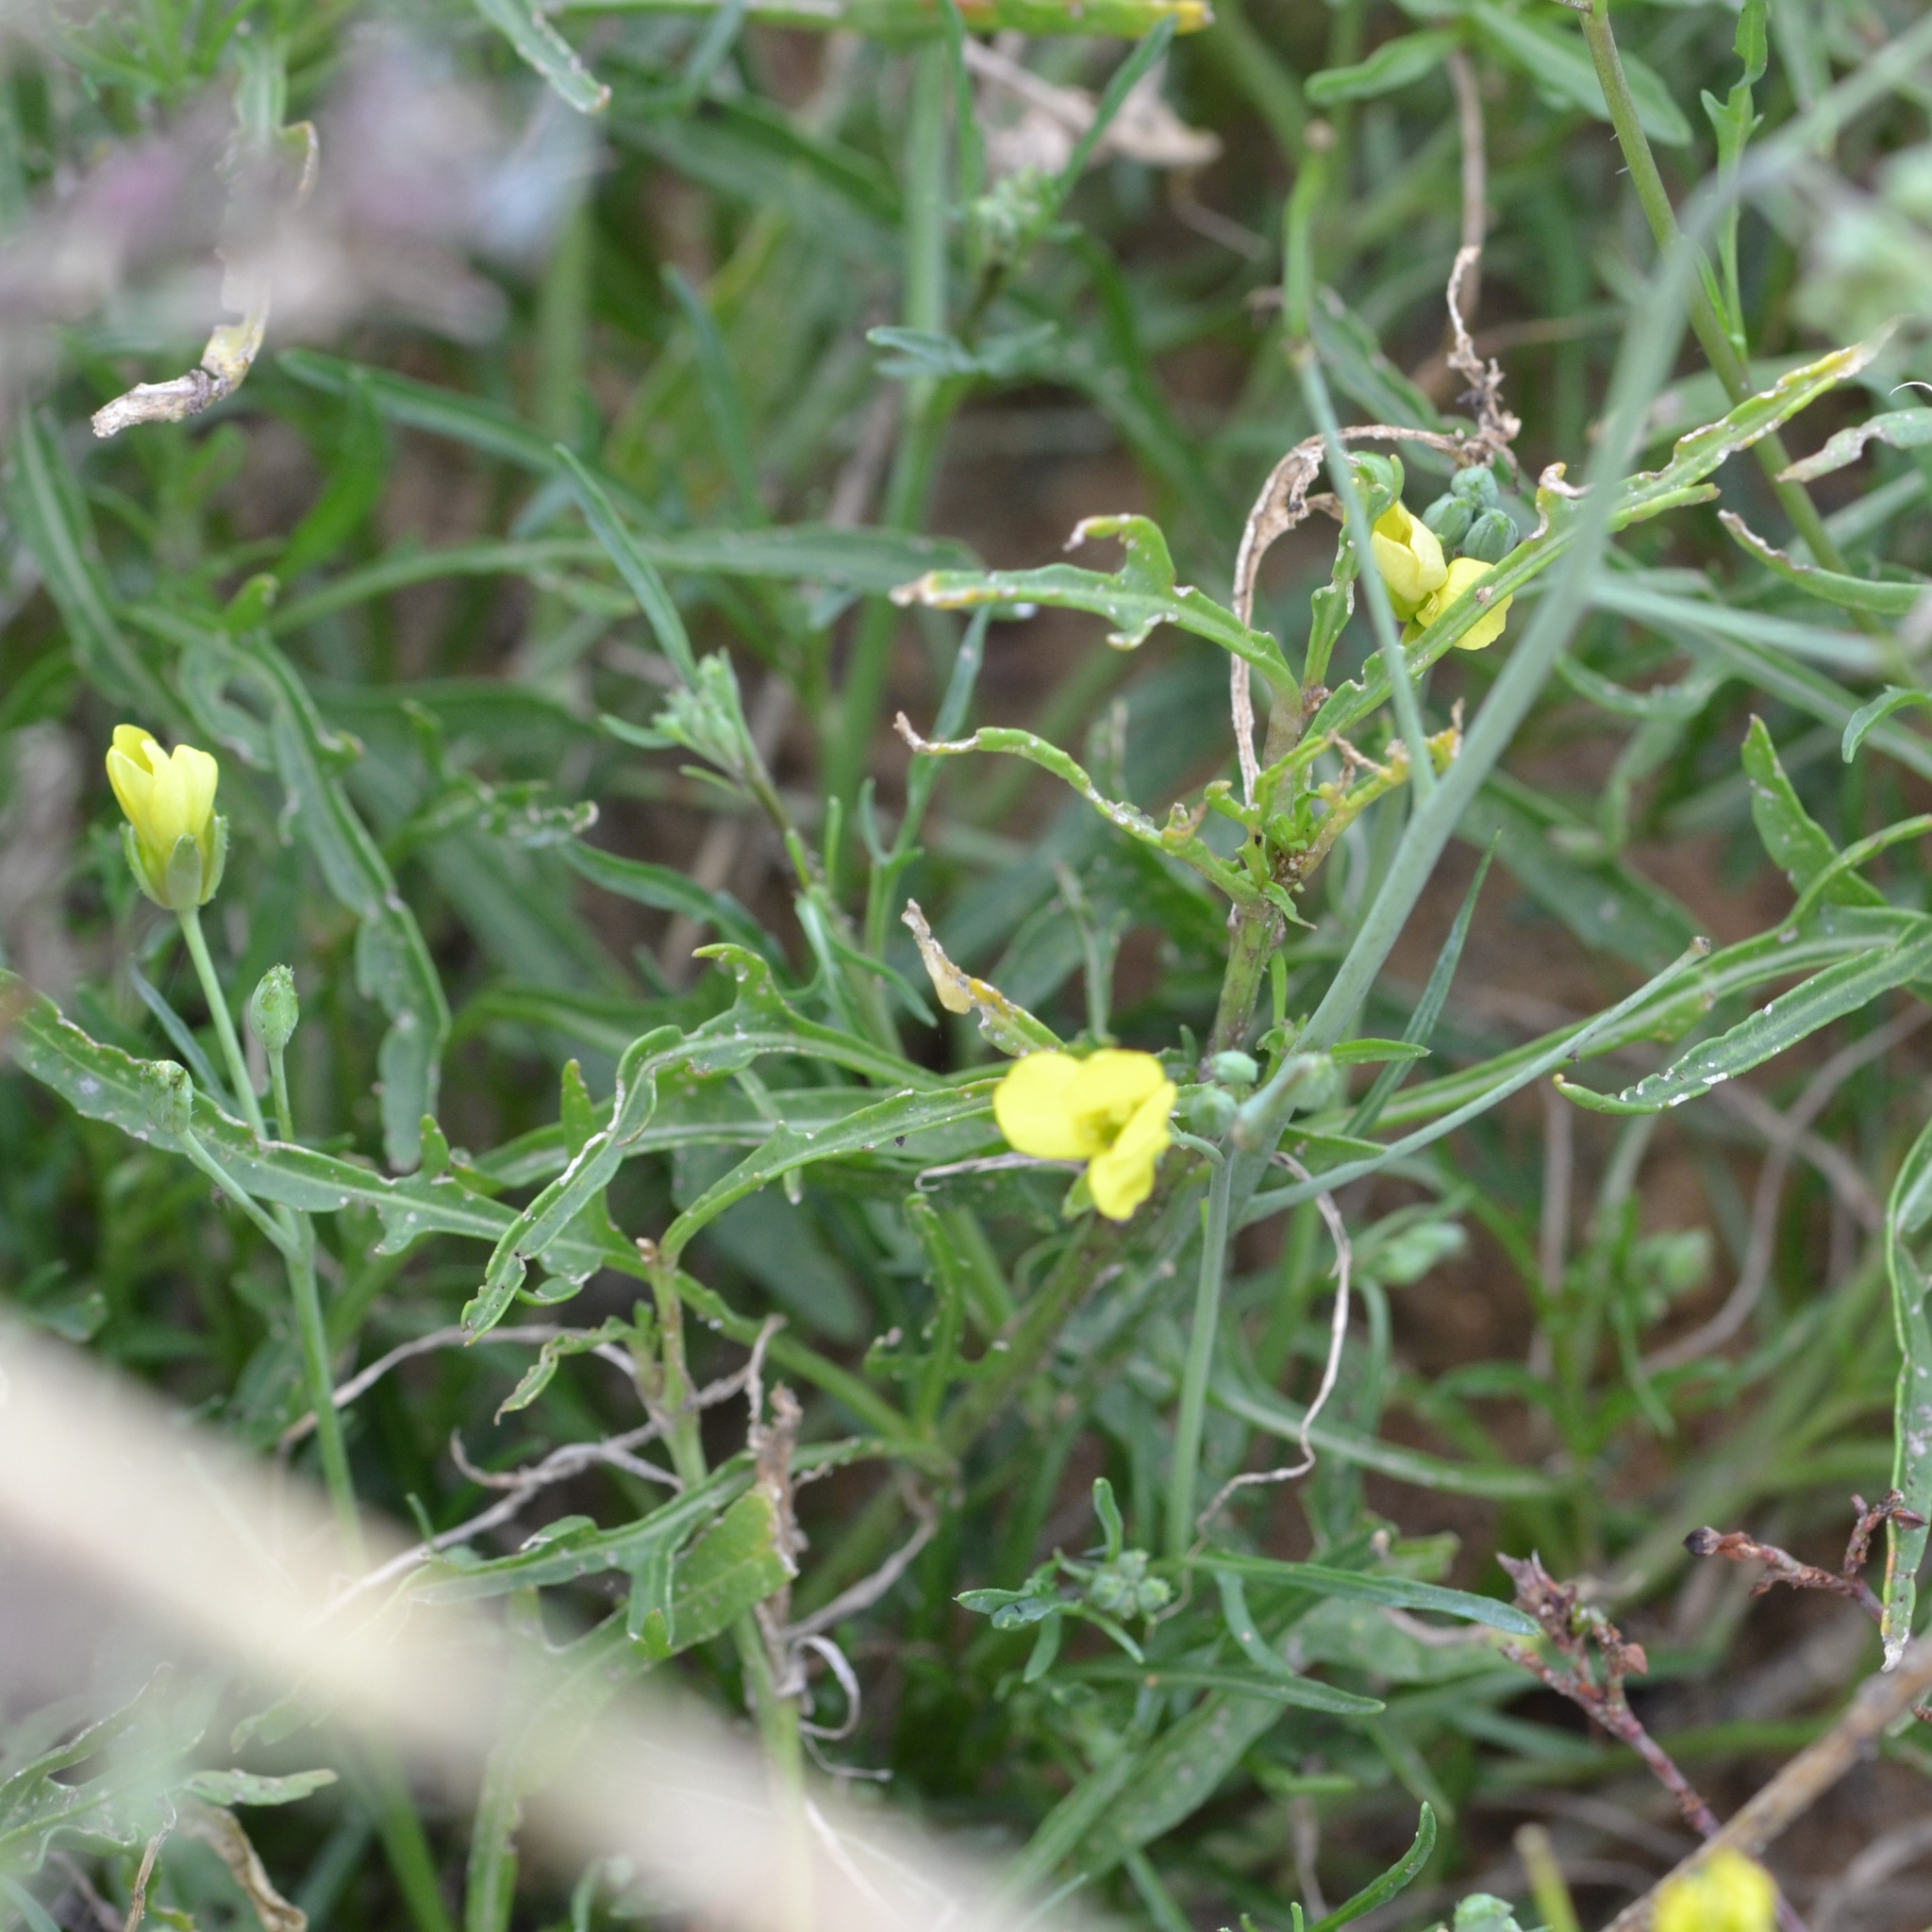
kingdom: Plantae
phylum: Tracheophyta
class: Magnoliopsida
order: Brassicales
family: Brassicaceae
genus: Diplotaxis
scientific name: Diplotaxis tenuifolia
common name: Perennial wall-rocket
